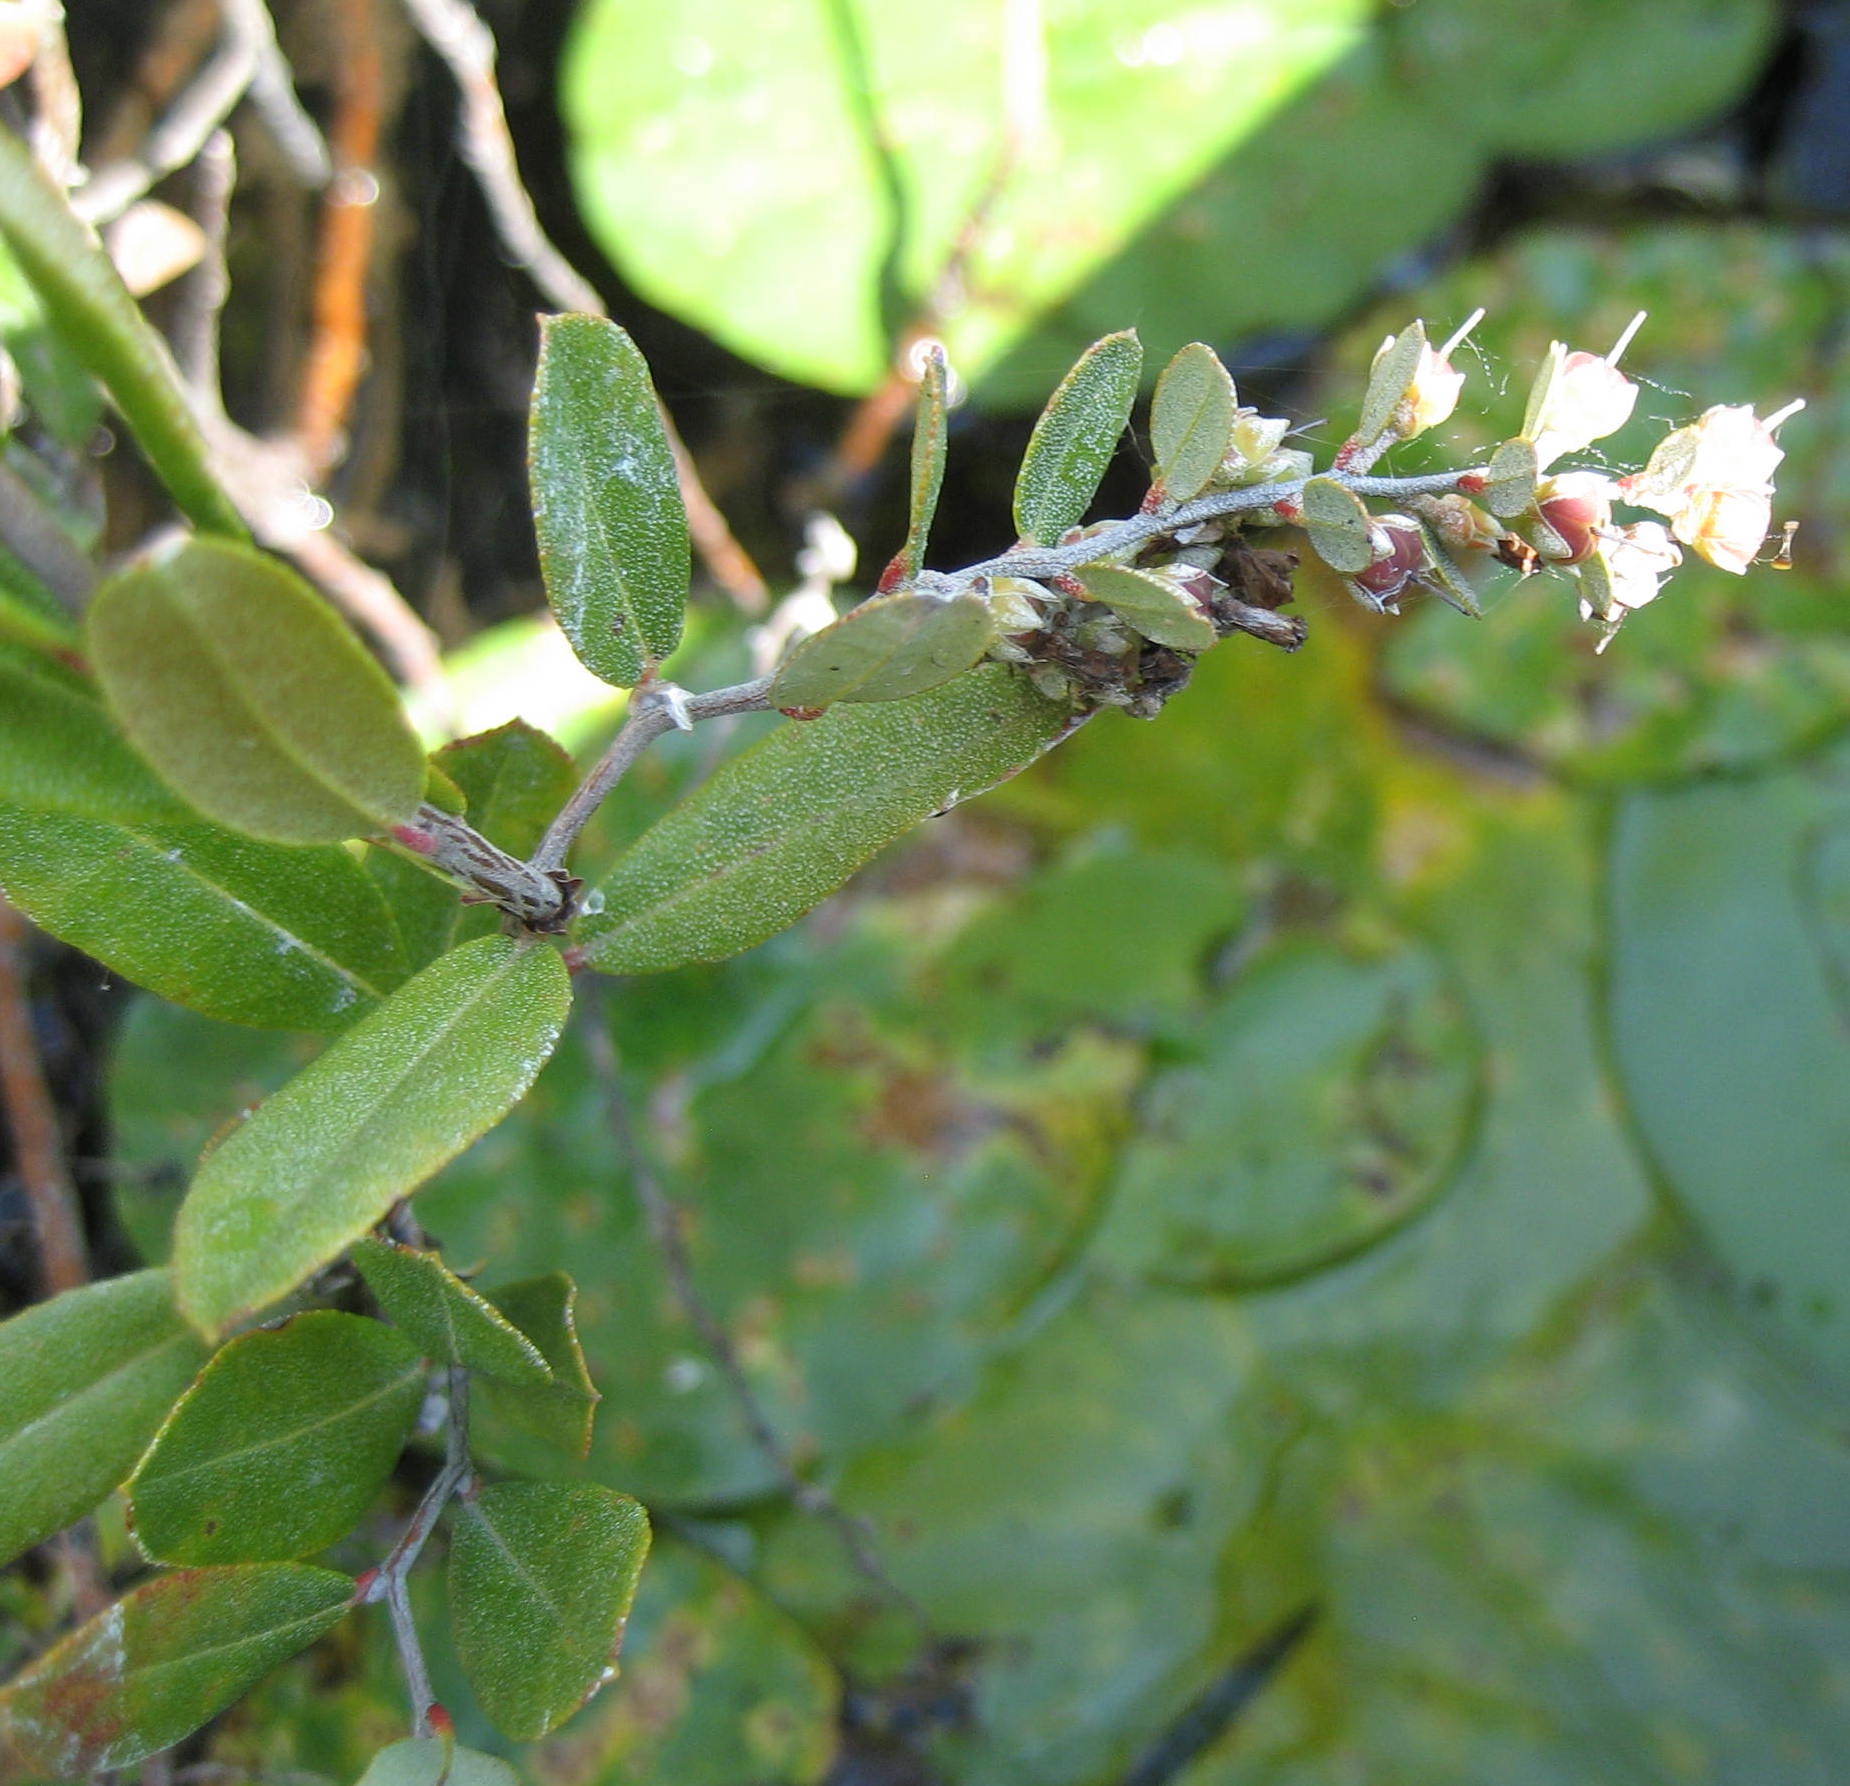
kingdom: Plantae
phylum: Tracheophyta
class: Magnoliopsida
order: Ericales
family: Ericaceae
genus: Chamaedaphne
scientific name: Chamaedaphne calyculata
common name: Leatherleaf
